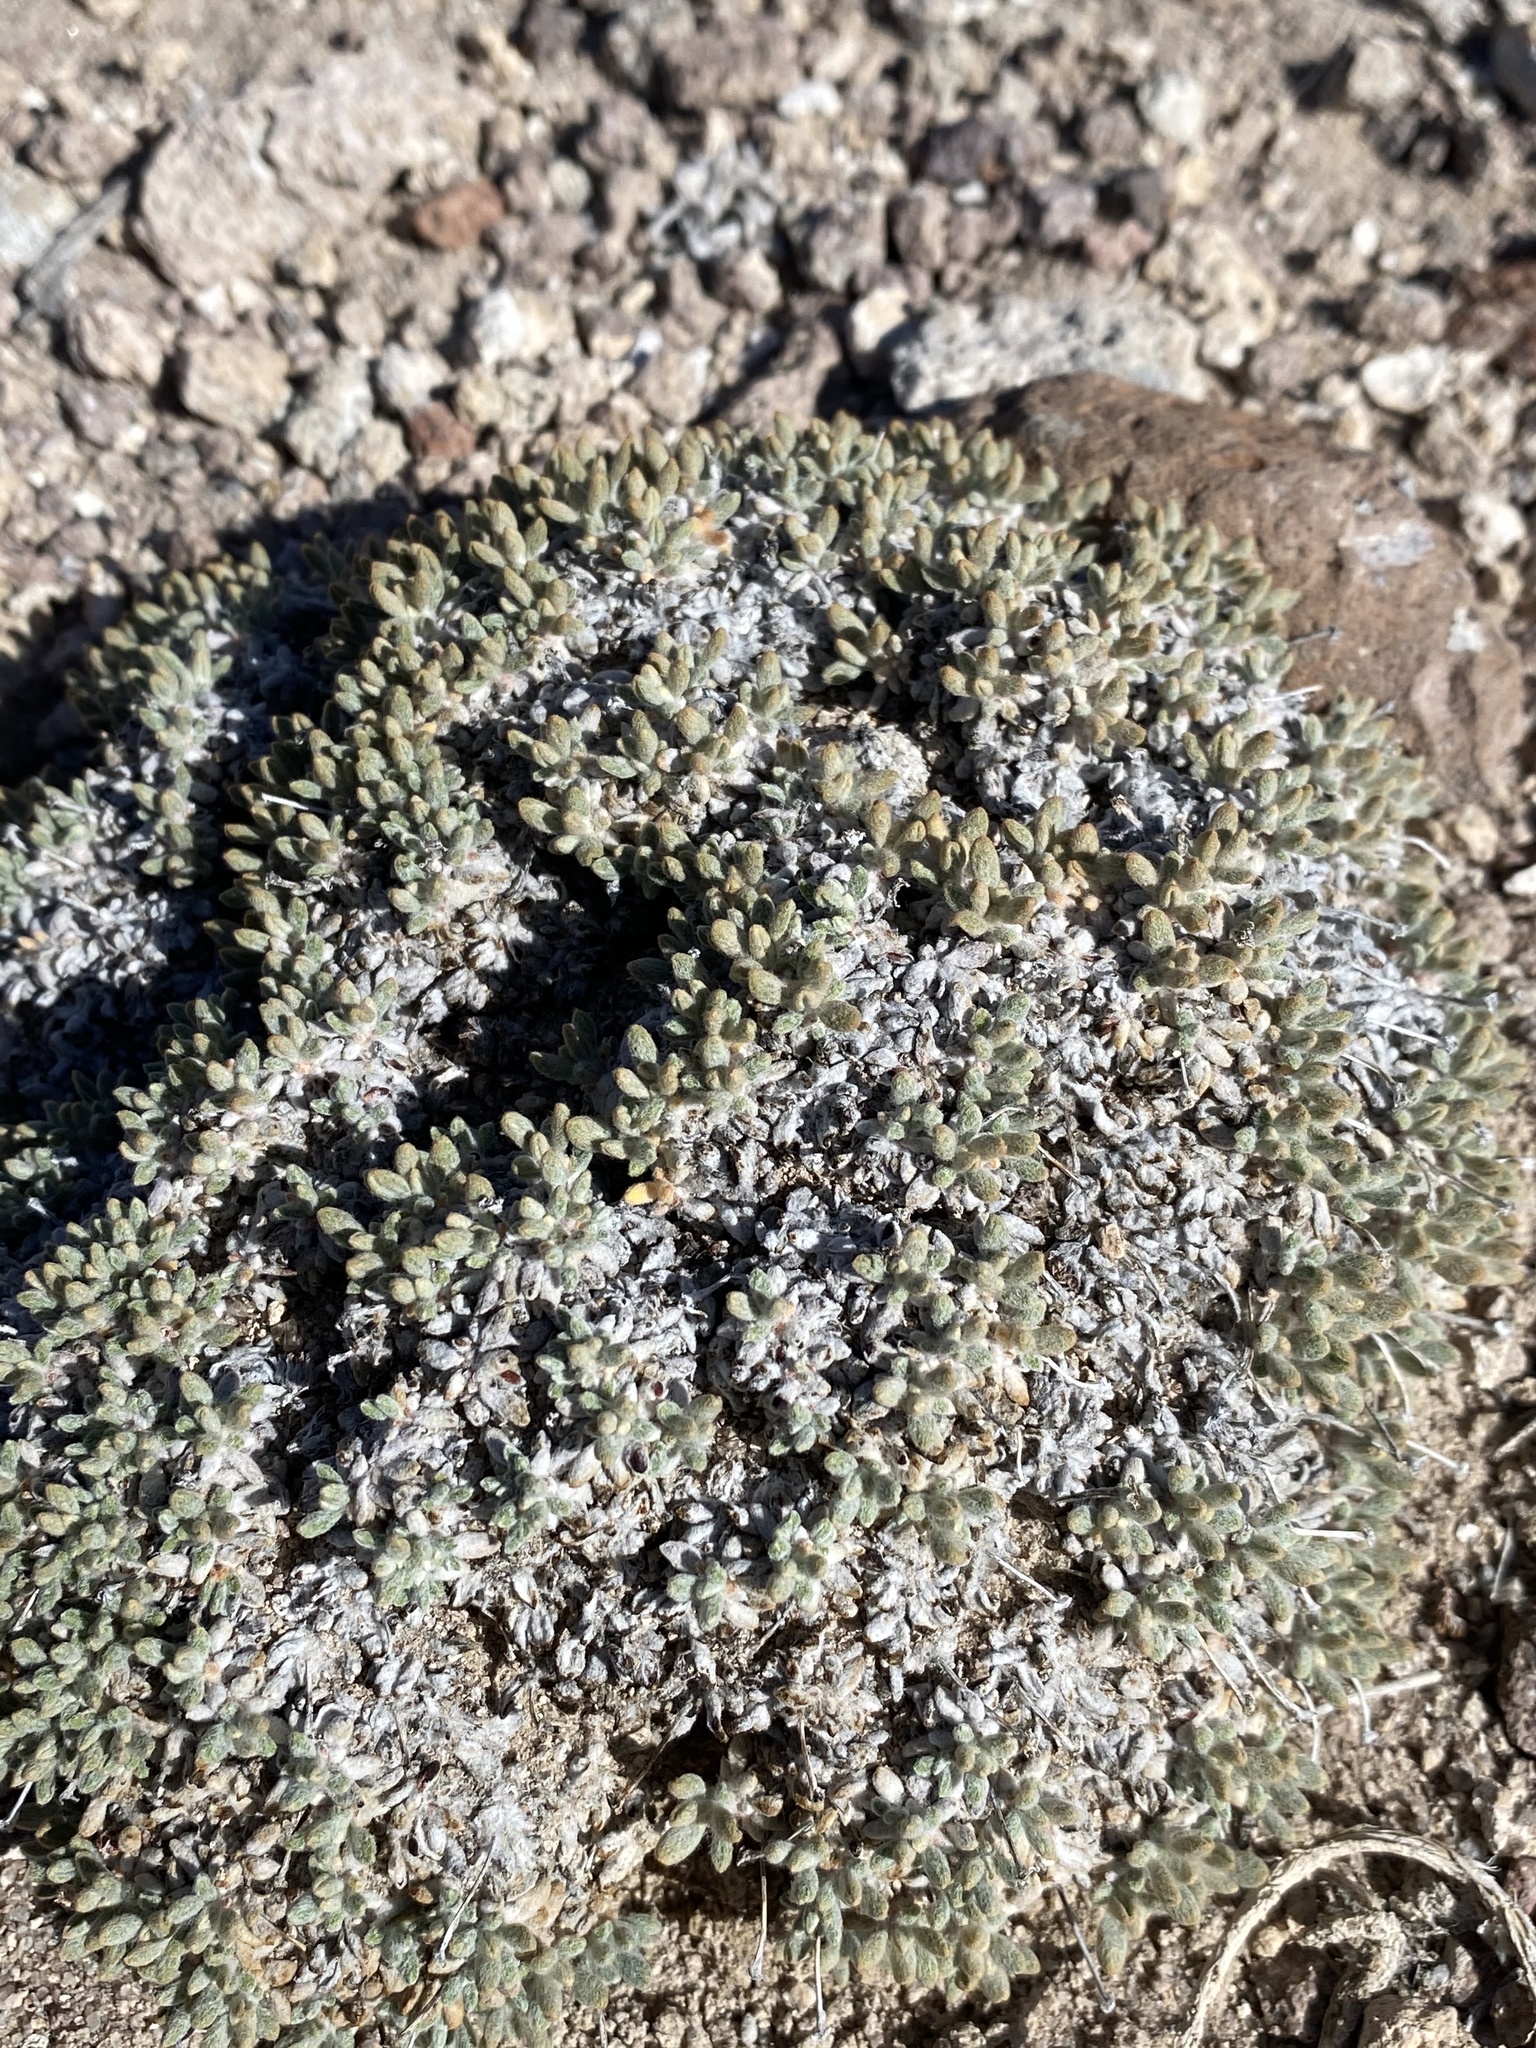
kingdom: Plantae
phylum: Tracheophyta
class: Magnoliopsida
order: Caryophyllales
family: Polygonaceae
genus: Eriogonum
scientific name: Eriogonum shockleyi
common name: Shockley's wild buckwheat
